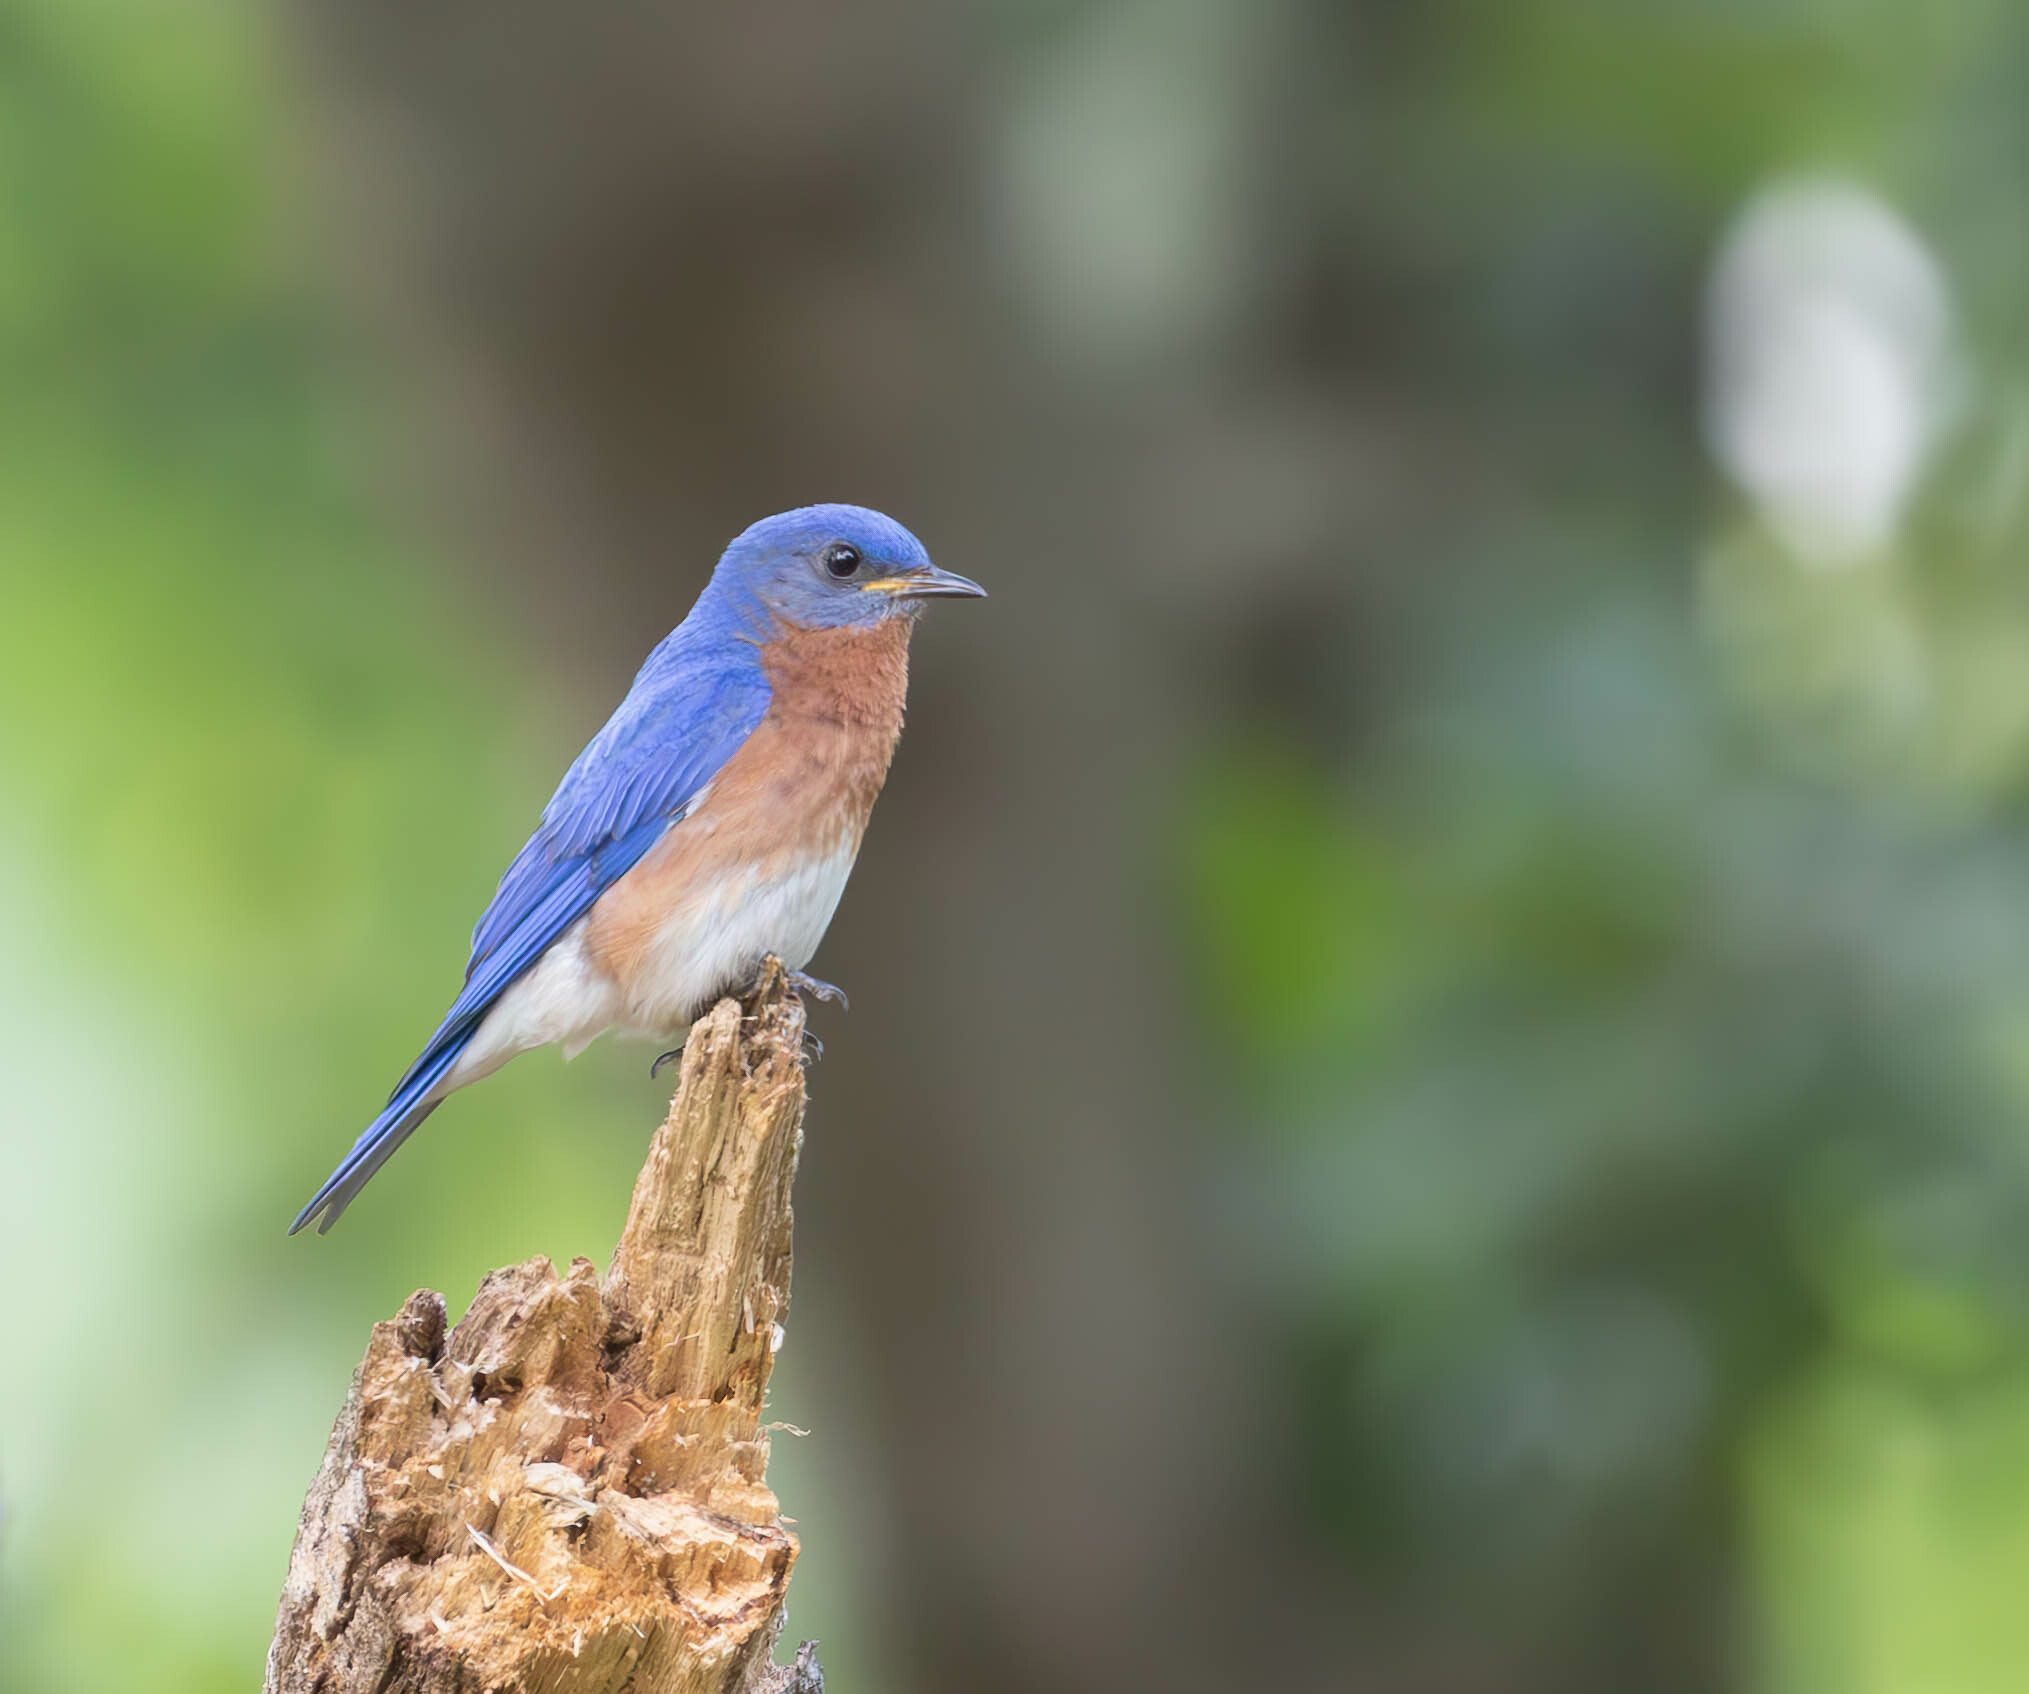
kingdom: Animalia
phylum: Chordata
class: Aves
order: Passeriformes
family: Turdidae
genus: Sialia
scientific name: Sialia sialis
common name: Eastern bluebird
